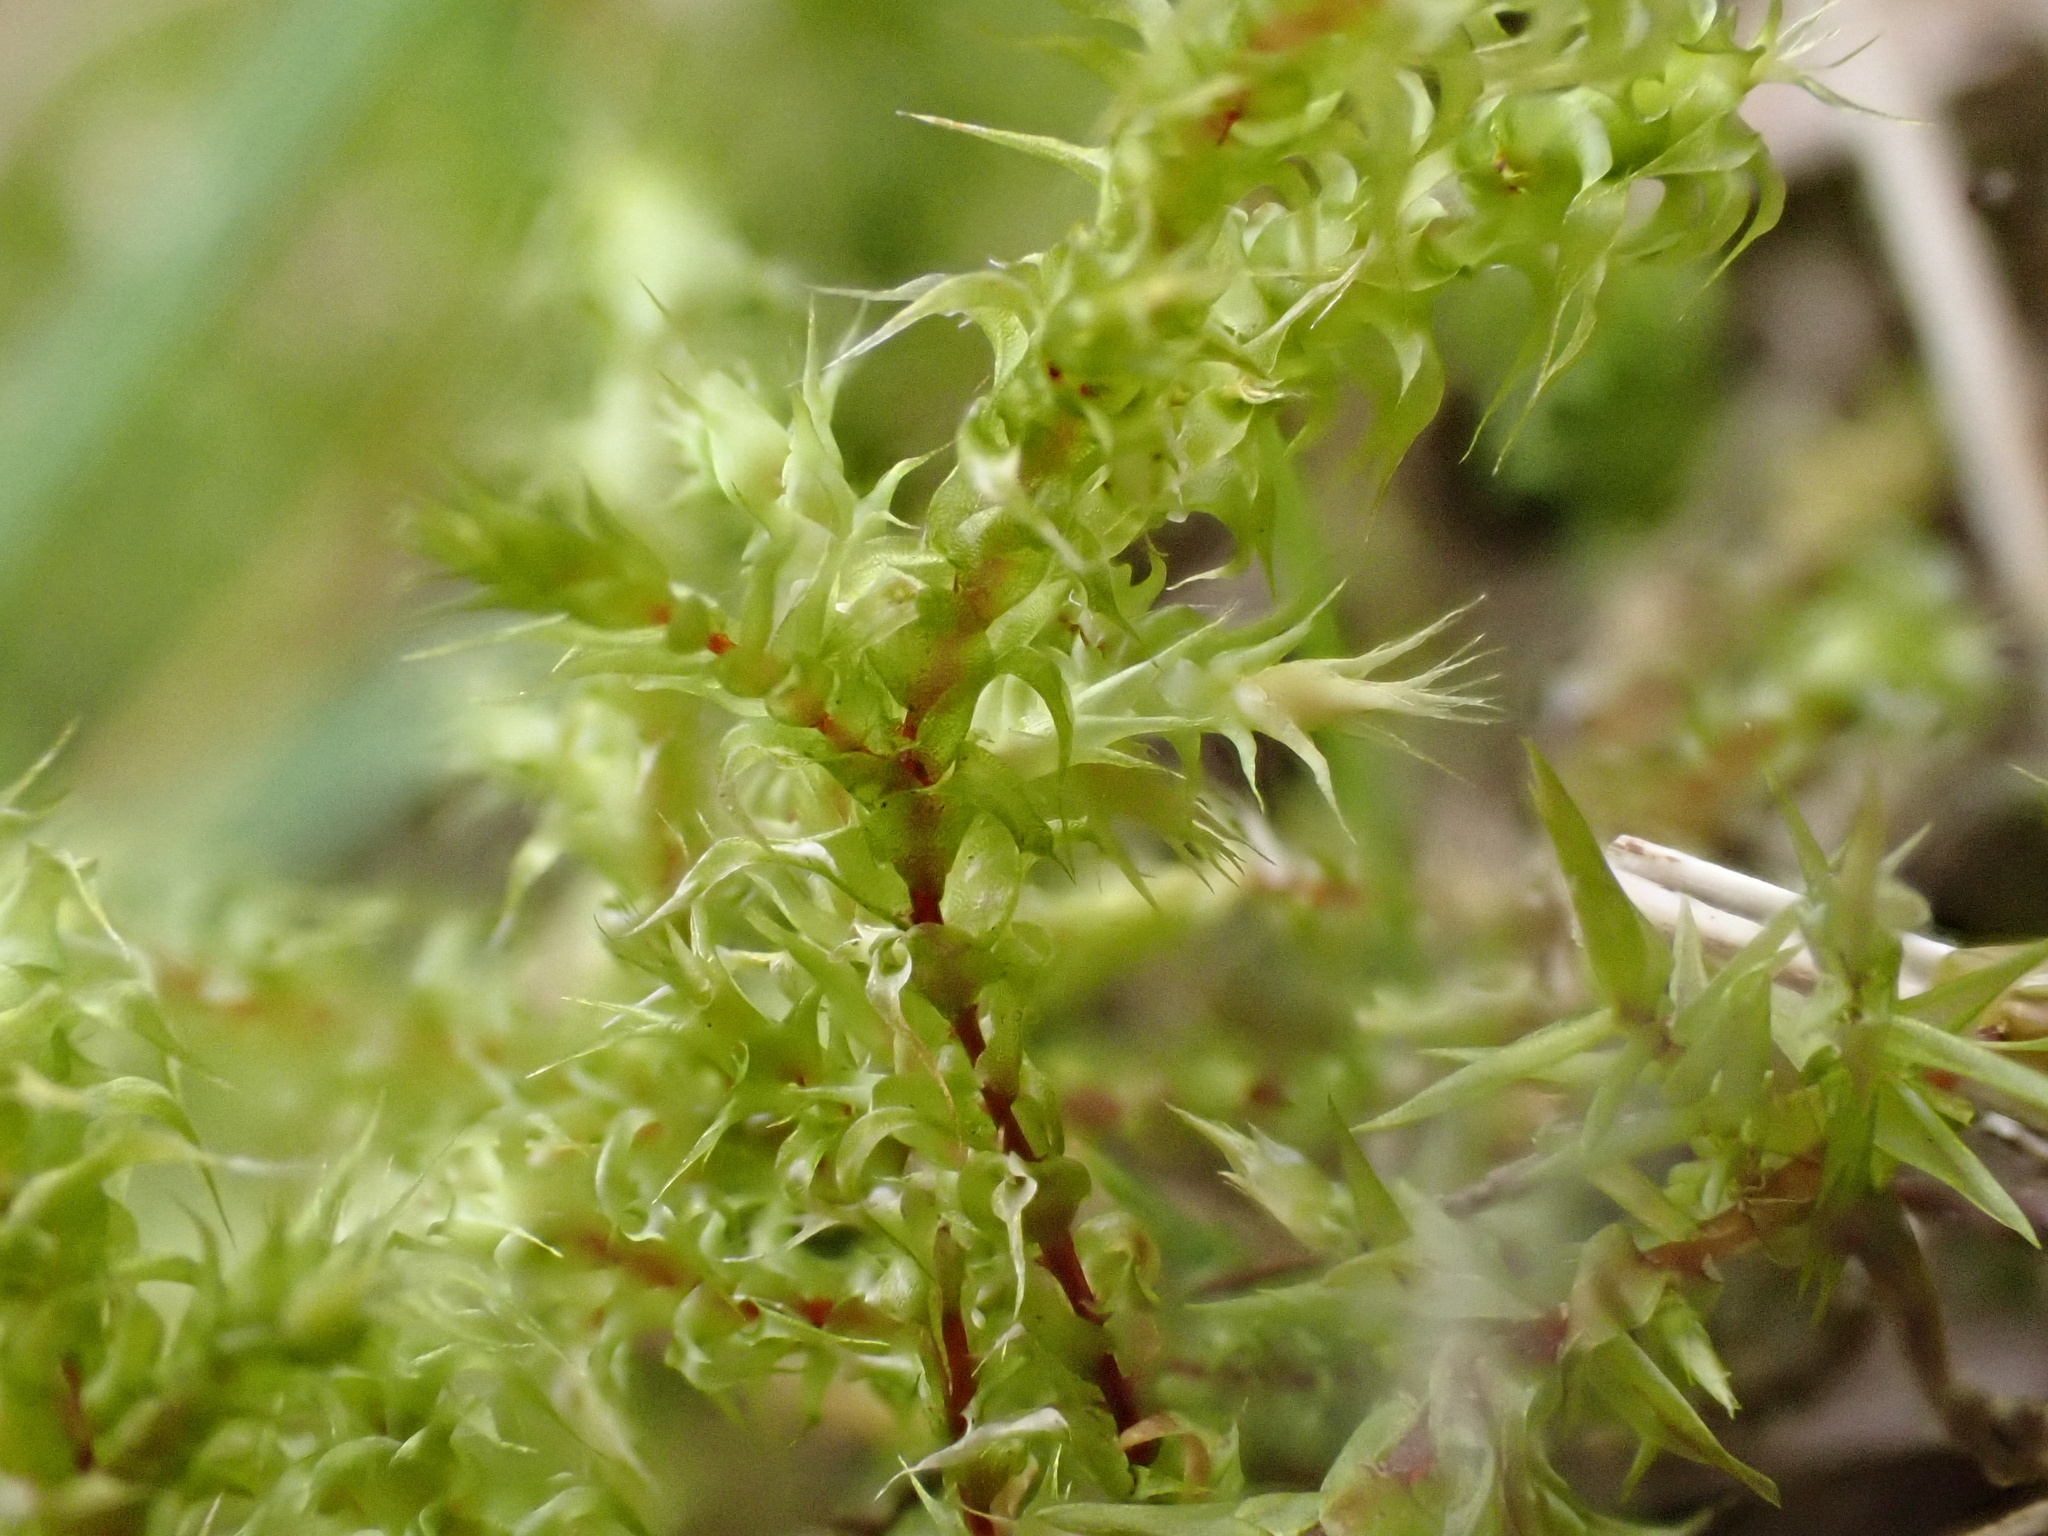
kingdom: Plantae
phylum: Bryophyta
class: Bryopsida
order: Hypnales
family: Hylocomiaceae
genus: Rhytidiadelphus
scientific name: Rhytidiadelphus squarrosus
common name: Springy turf-moss
